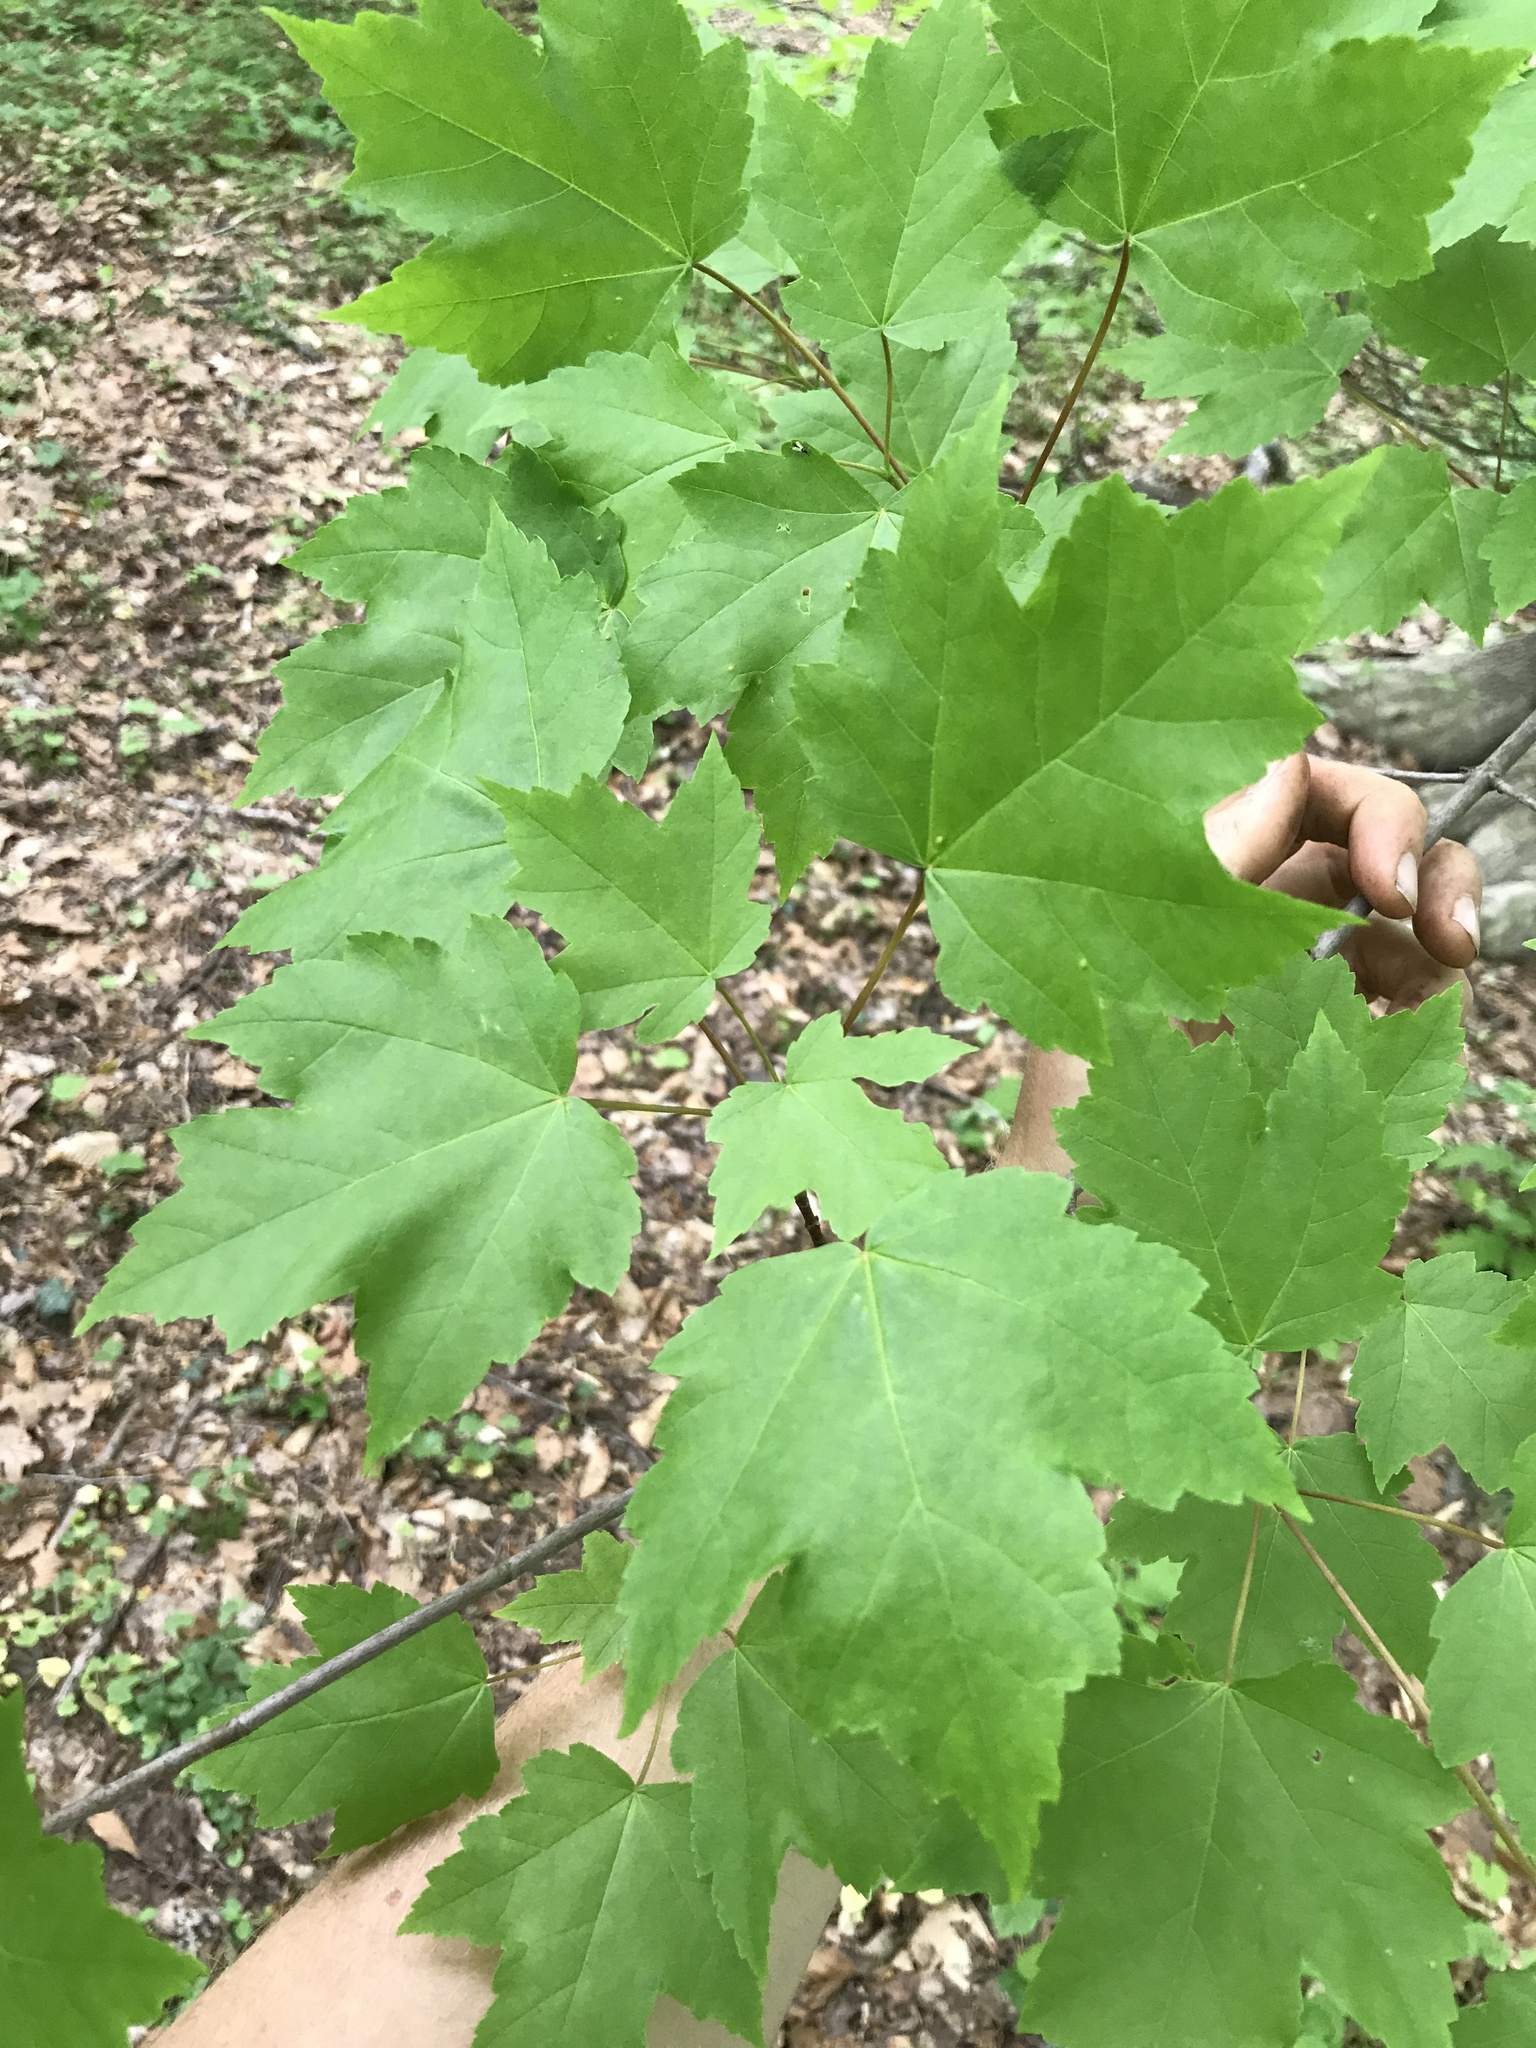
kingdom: Plantae
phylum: Tracheophyta
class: Magnoliopsida
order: Sapindales
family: Sapindaceae
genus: Acer
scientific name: Acer rubrum
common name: Red maple
